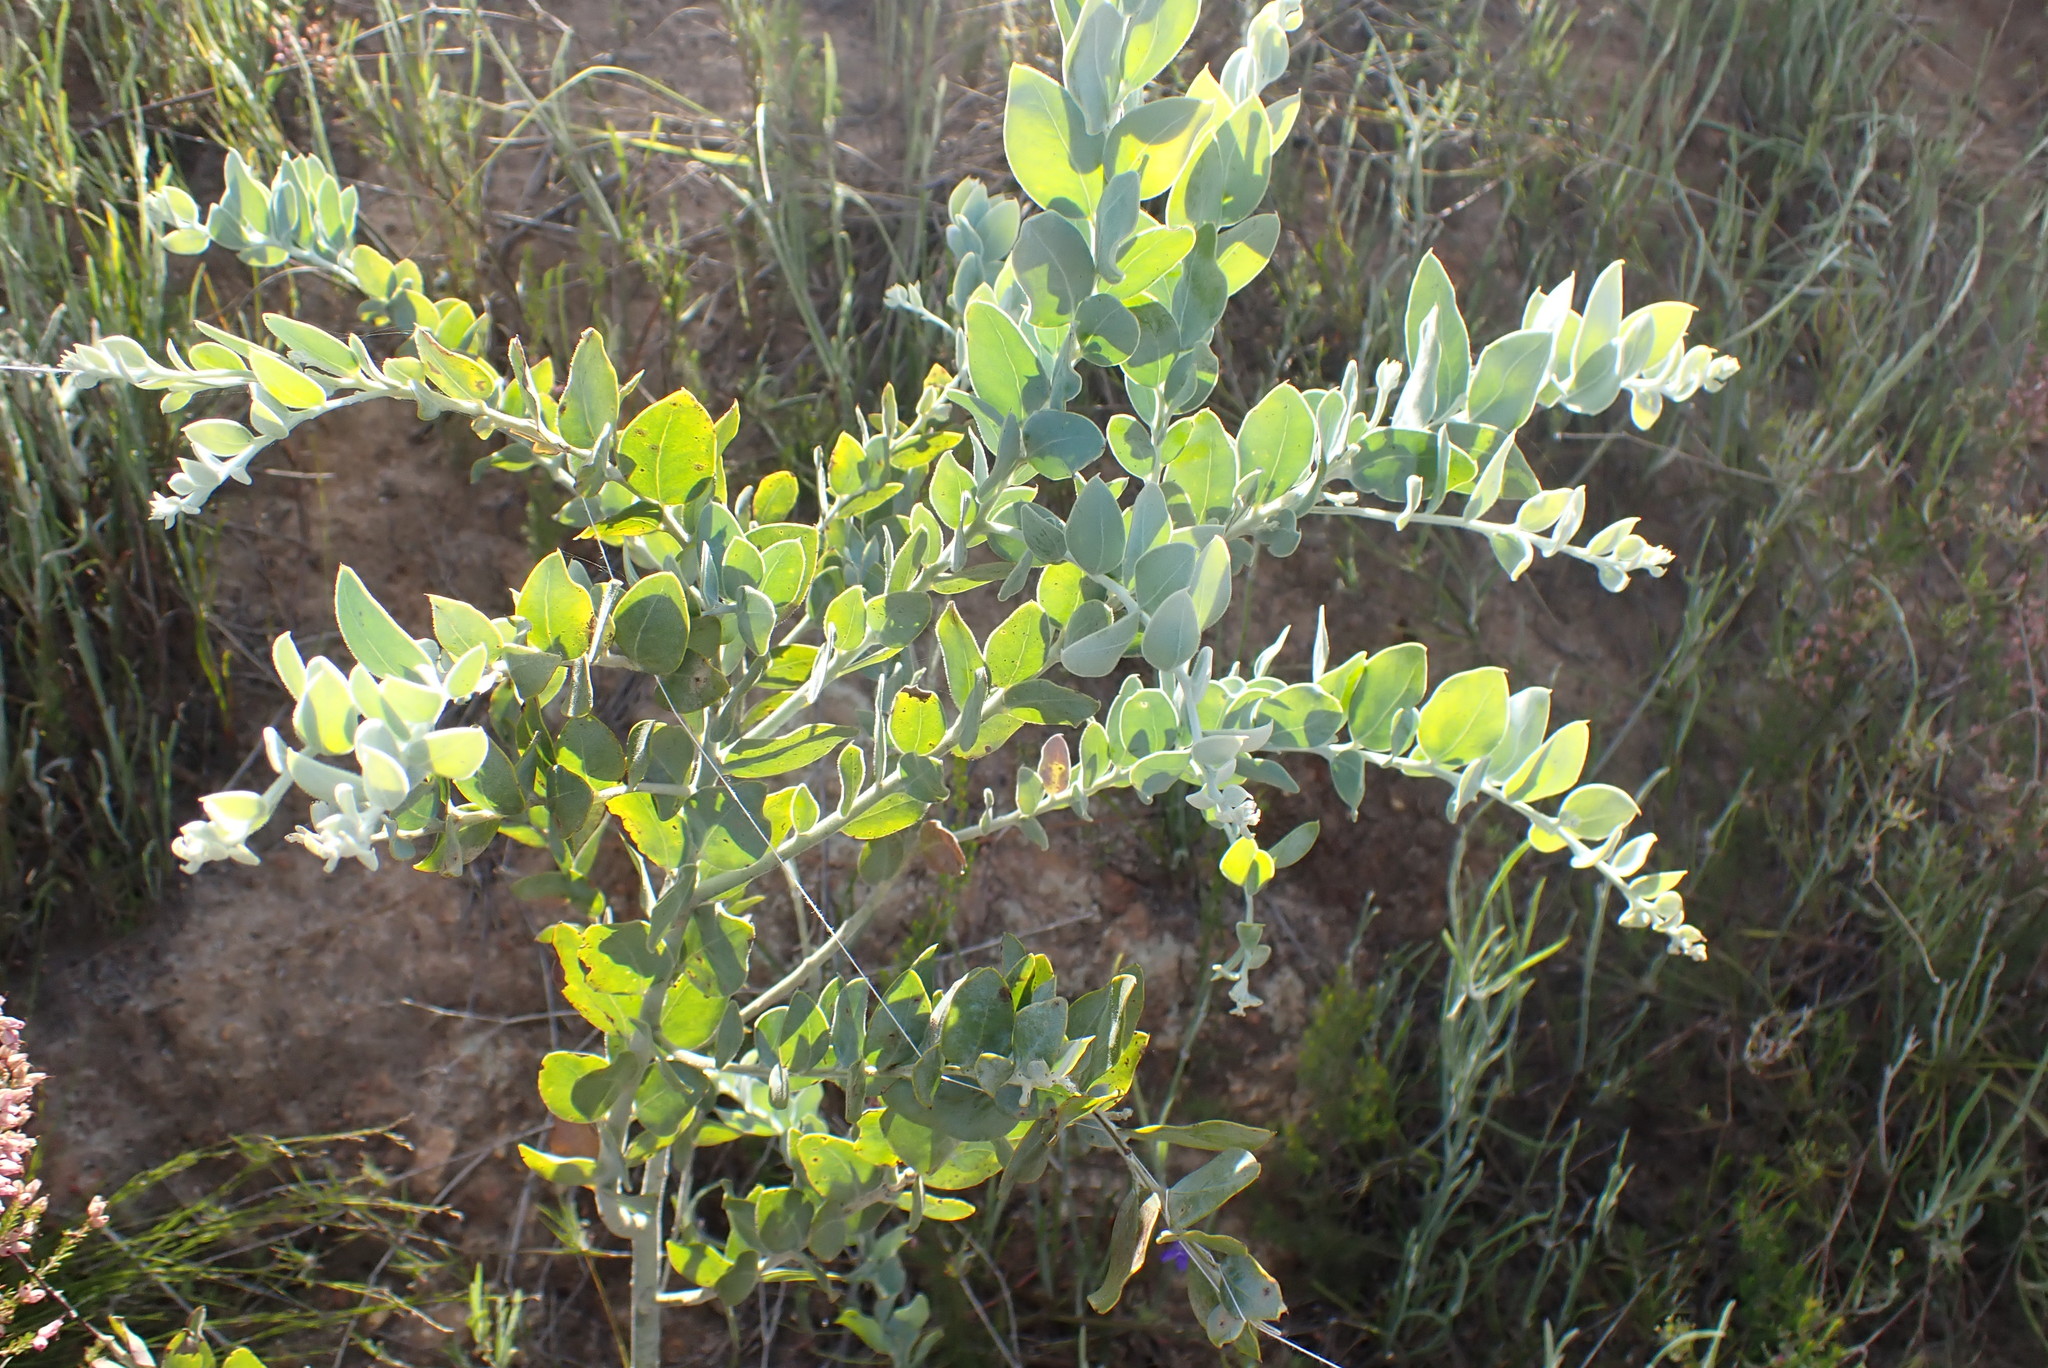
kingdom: Plantae
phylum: Tracheophyta
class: Magnoliopsida
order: Fabales
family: Fabaceae
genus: Acacia
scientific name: Acacia podalyriifolia
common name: Pearl wattle
